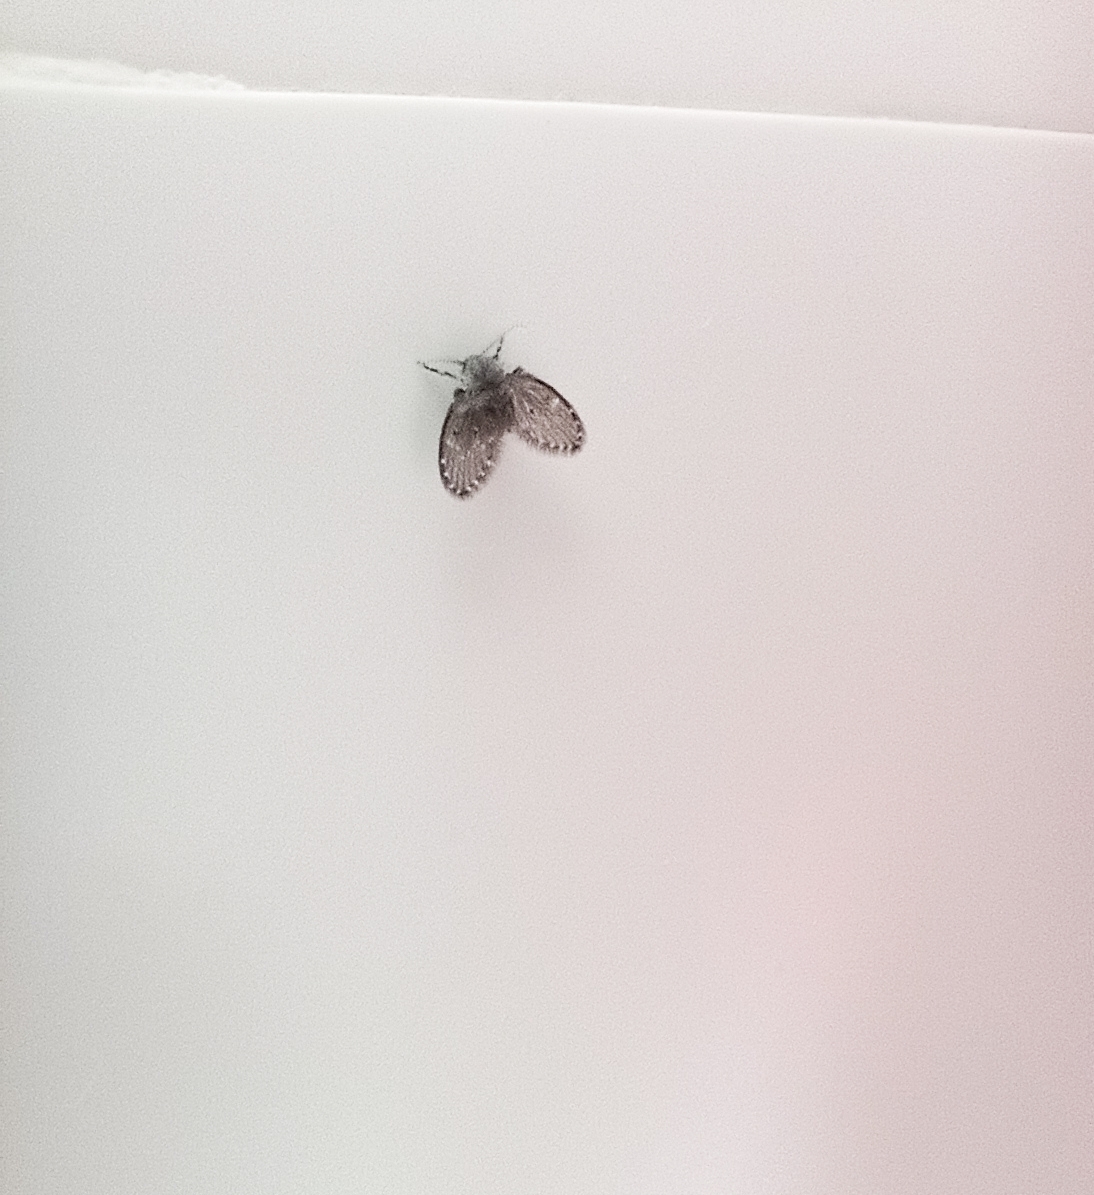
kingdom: Animalia
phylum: Arthropoda
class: Insecta
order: Diptera
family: Psychodidae
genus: Clogmia
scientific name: Clogmia albipunctatus
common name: White-spotted moth fly
